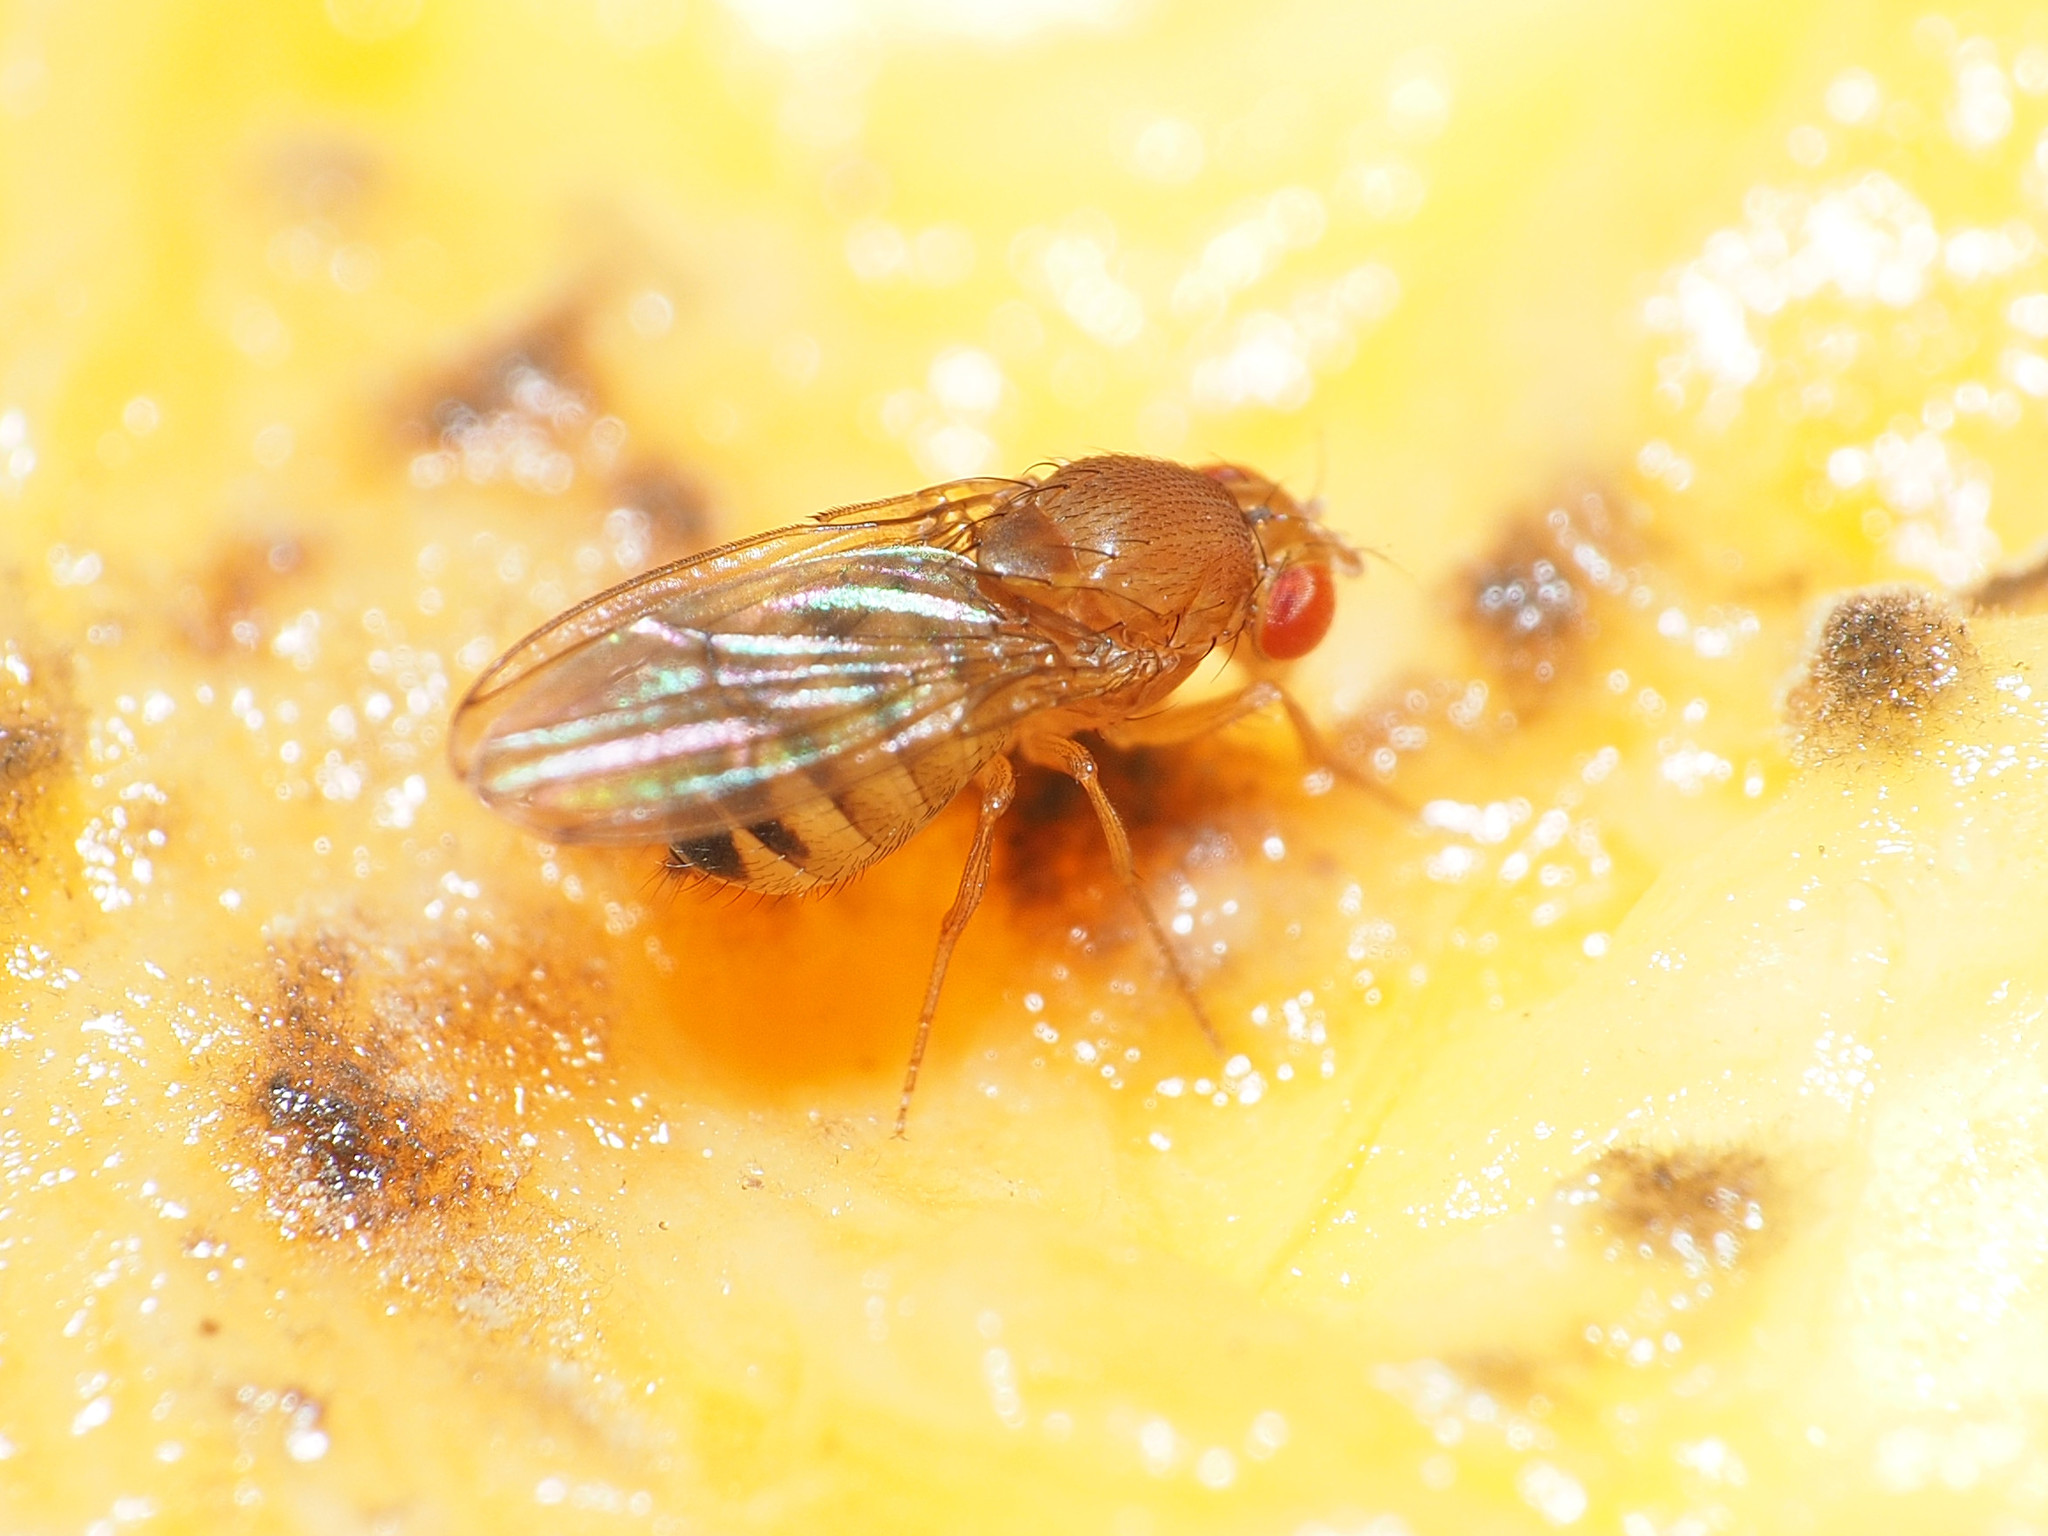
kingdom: Animalia
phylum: Arthropoda
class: Insecta
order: Diptera
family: Drosophilidae
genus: Drosophila
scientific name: Drosophila immigrans
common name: Pomace fly
